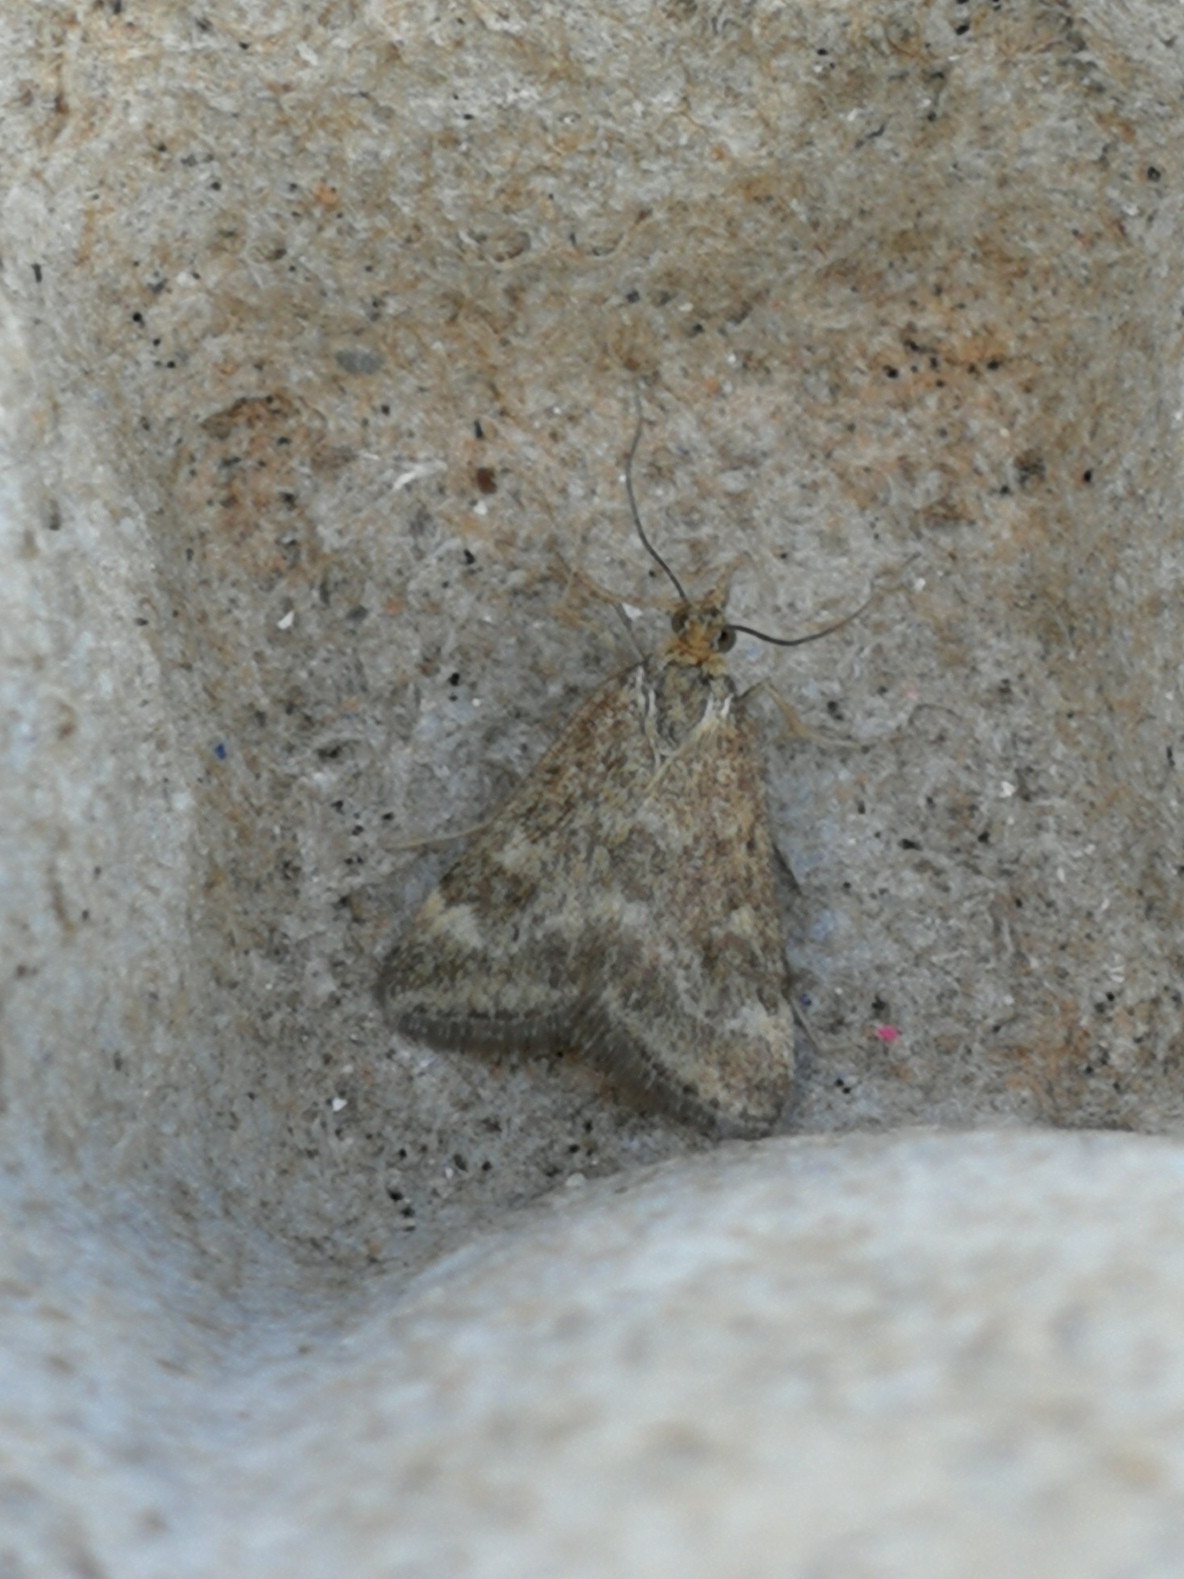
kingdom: Animalia
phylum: Arthropoda
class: Insecta
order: Lepidoptera
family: Crambidae
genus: Pyrausta
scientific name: Pyrausta despicata
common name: Straw-barred pearl
